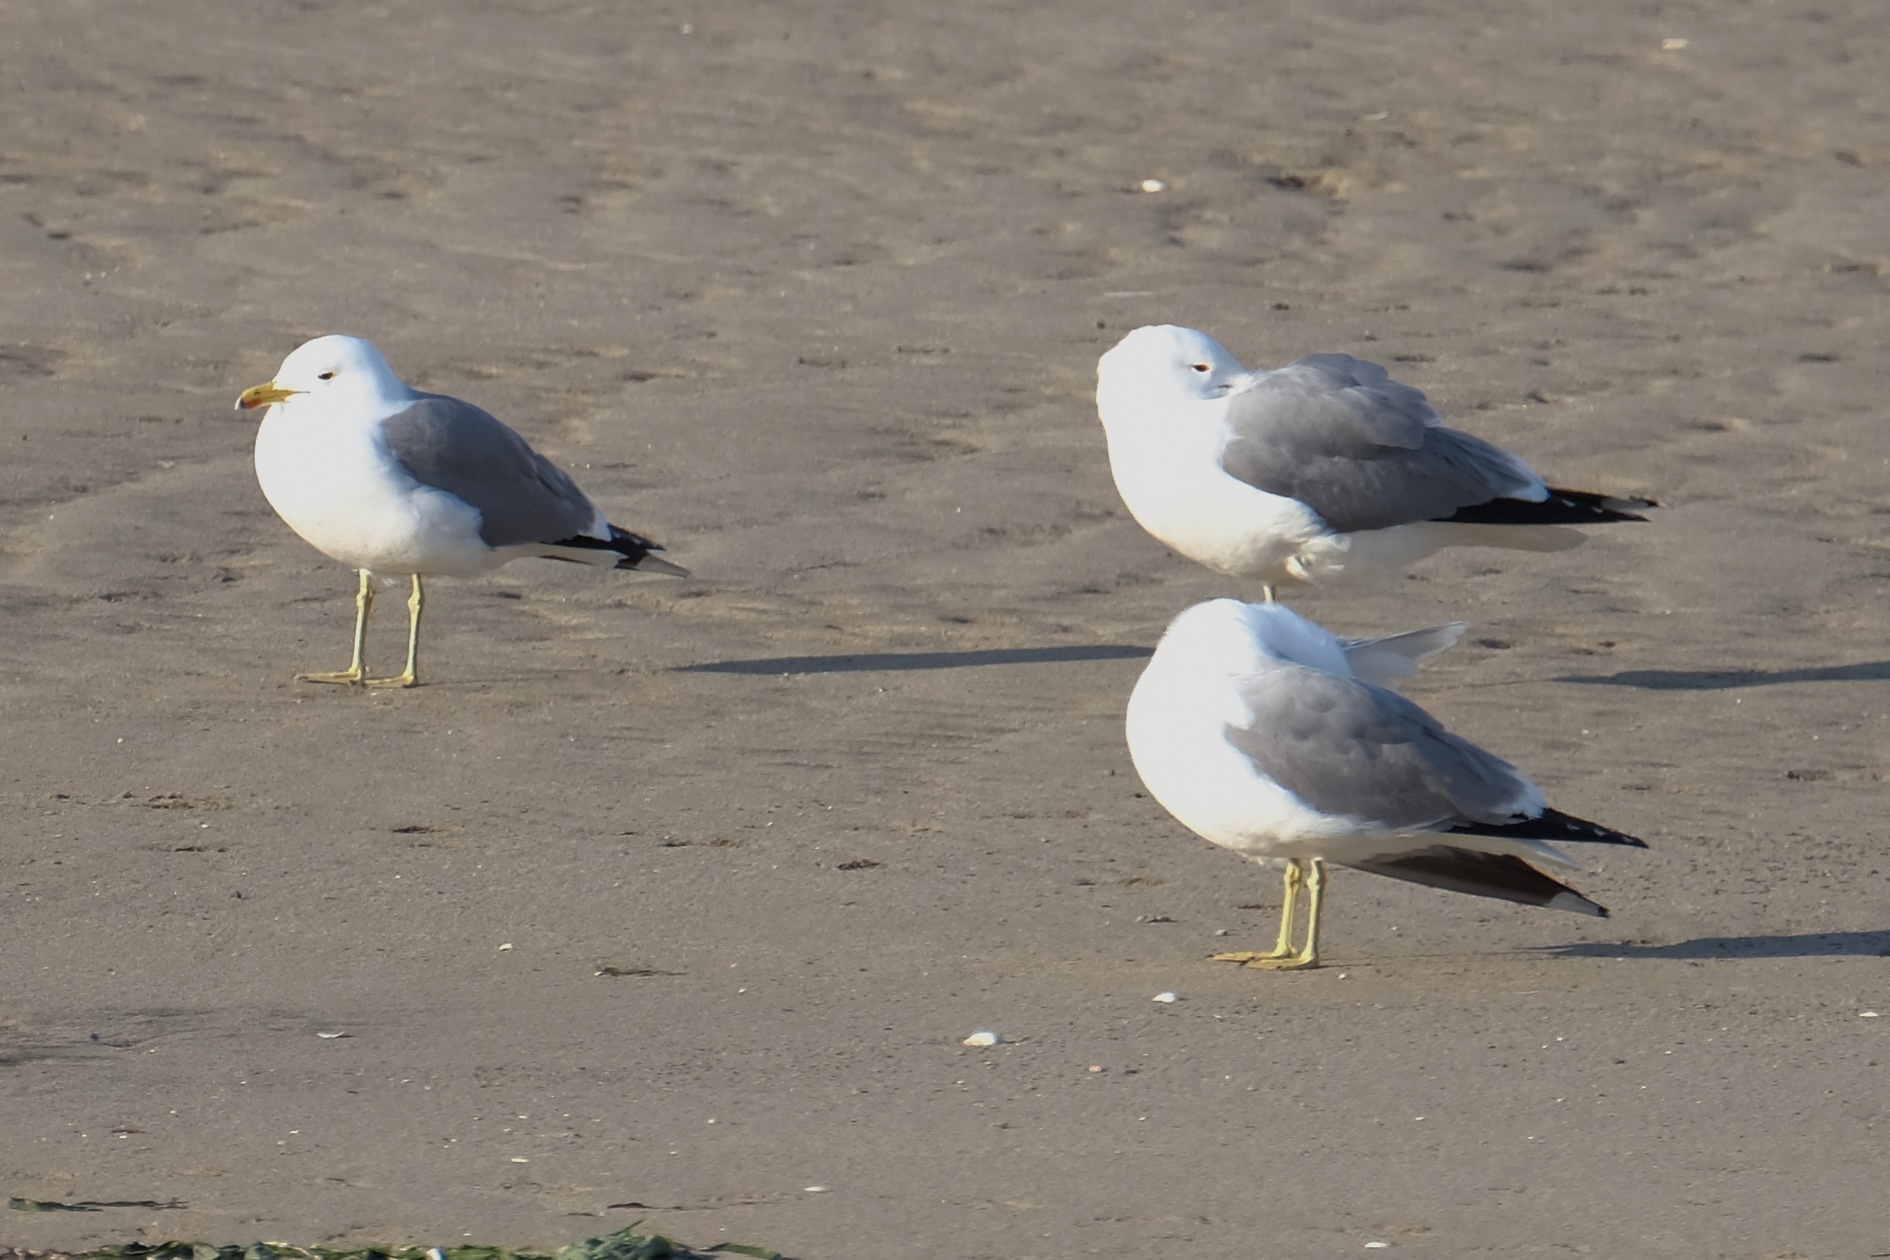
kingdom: Animalia
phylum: Chordata
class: Aves
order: Charadriiformes
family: Laridae
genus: Larus
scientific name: Larus californicus
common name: California gull
